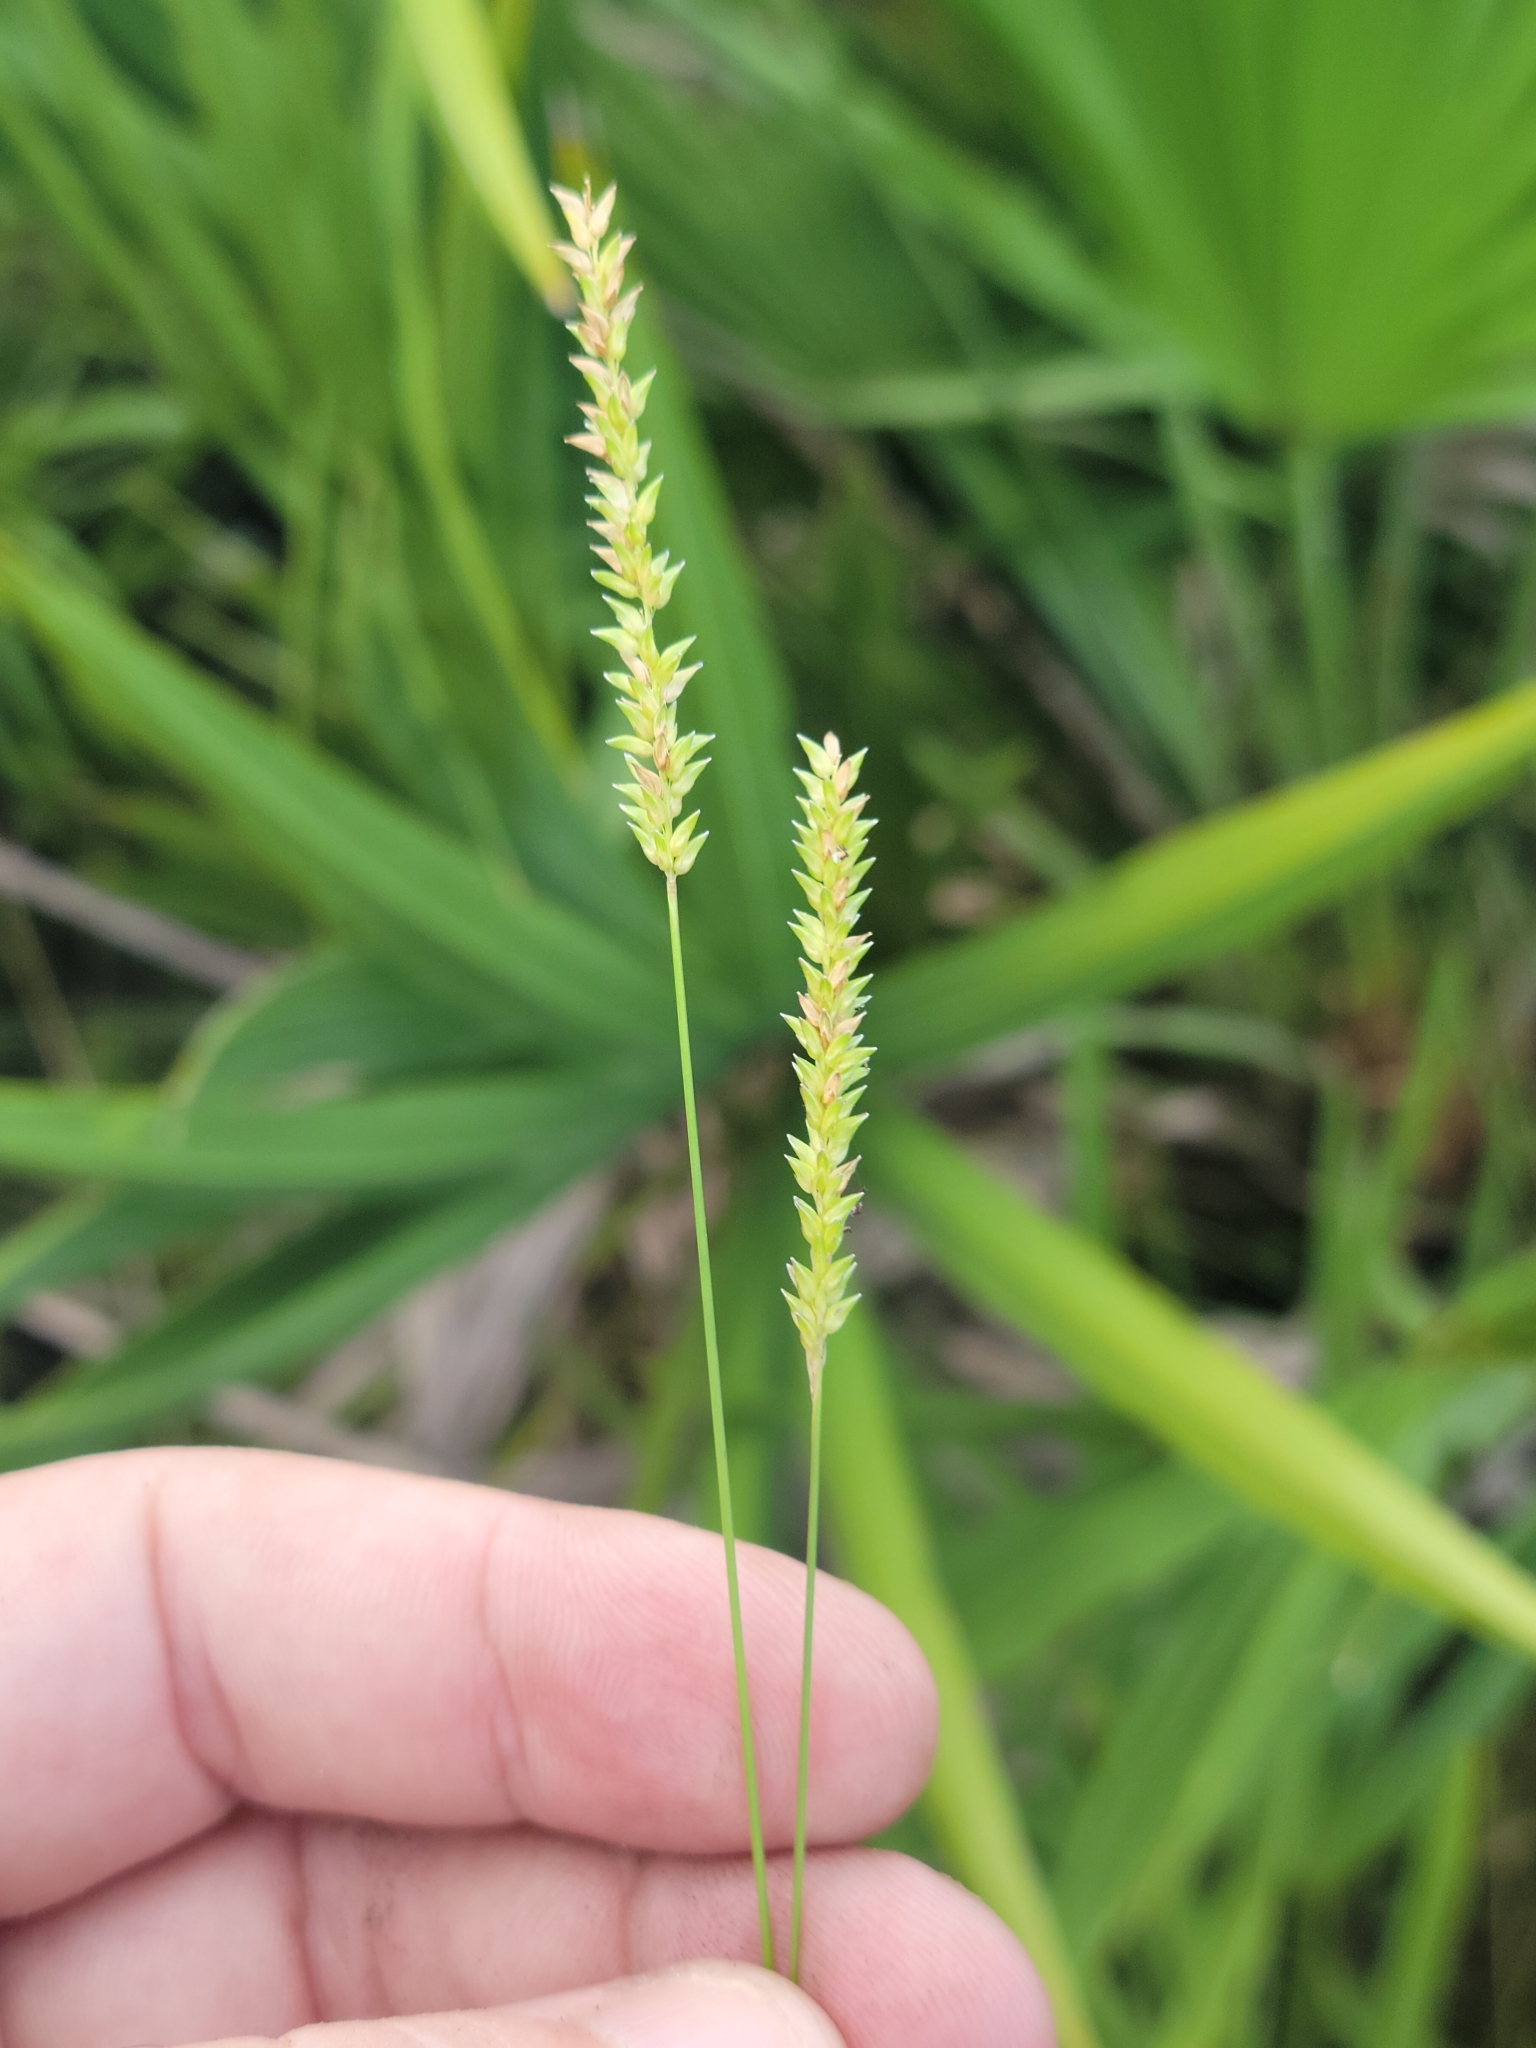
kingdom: Plantae
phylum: Tracheophyta
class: Liliopsida
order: Poales
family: Poaceae
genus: Sacciolepis
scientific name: Sacciolepis indica
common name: Glenwoodgrass
